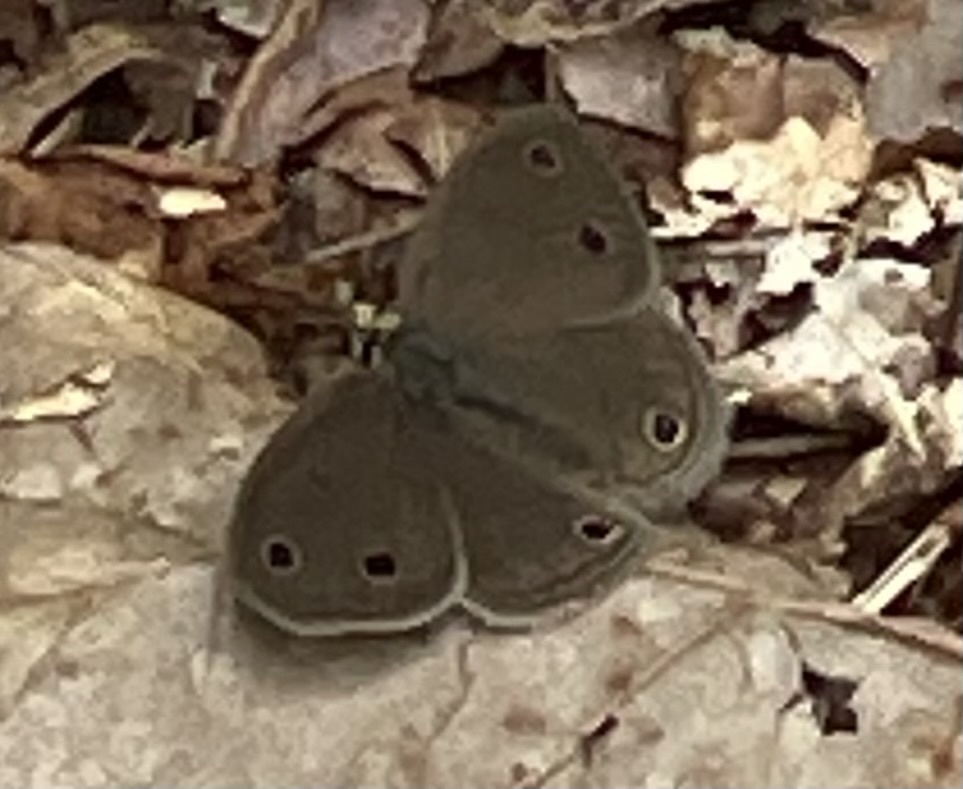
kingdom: Animalia
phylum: Arthropoda
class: Insecta
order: Lepidoptera
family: Nymphalidae
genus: Euptychia
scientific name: Euptychia cymela
